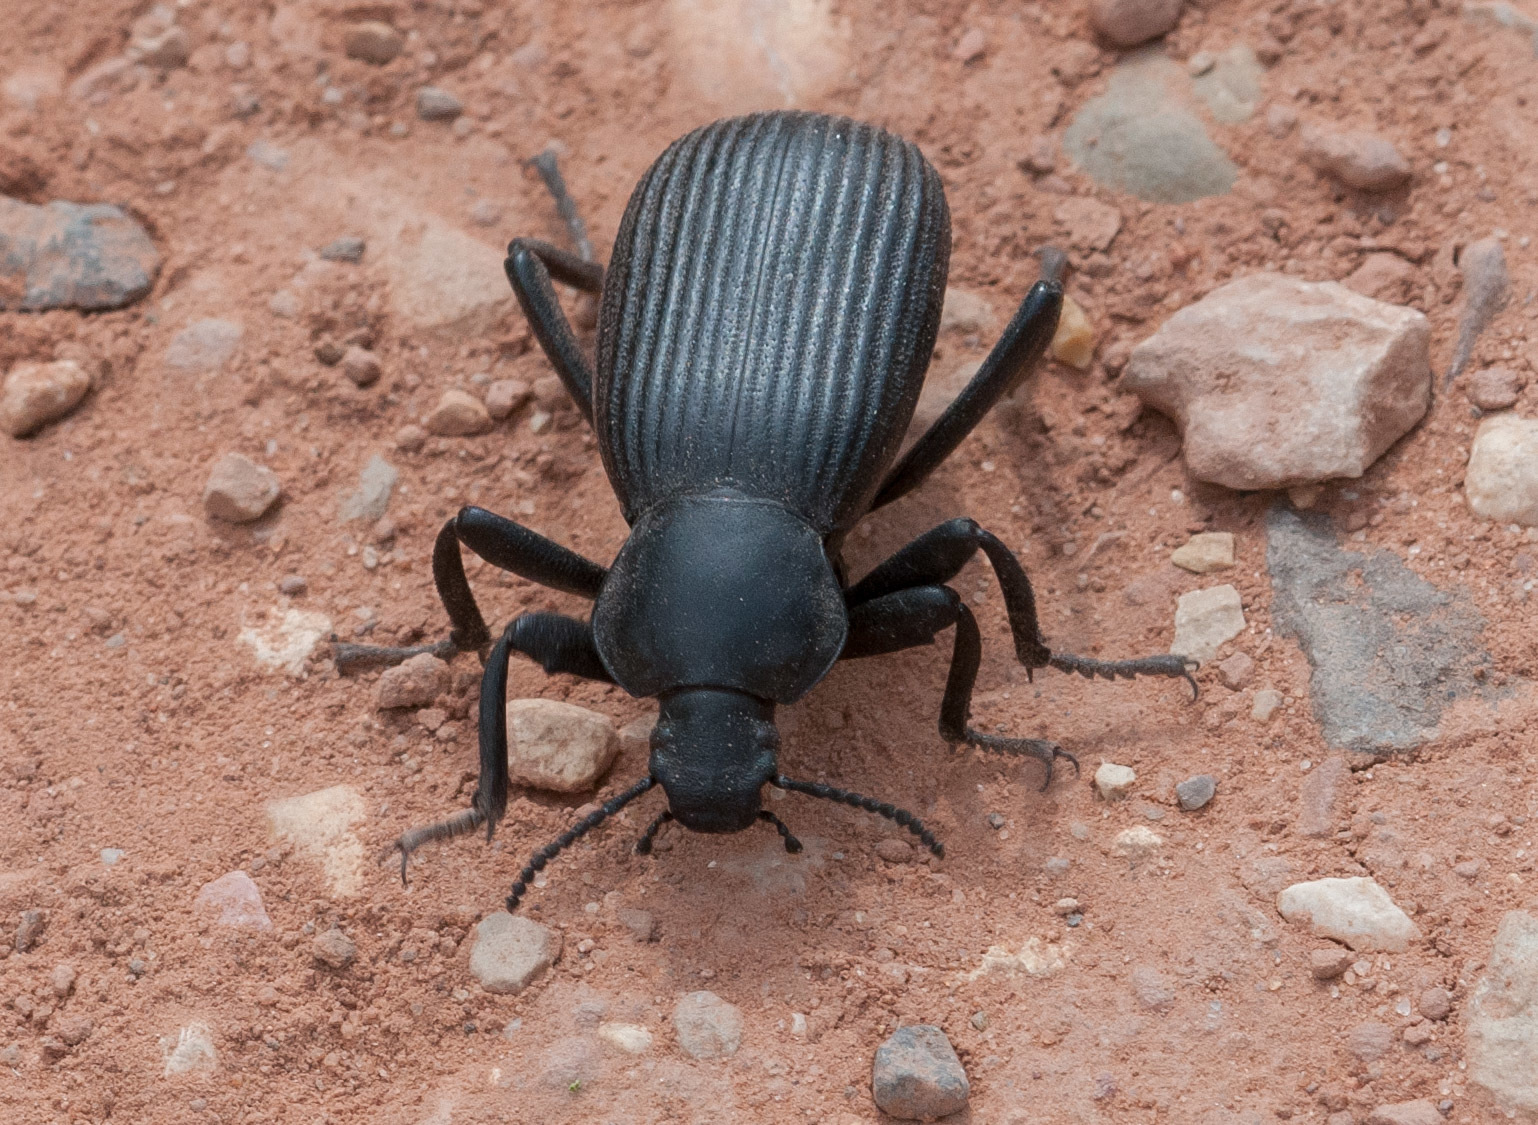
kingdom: Animalia
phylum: Arthropoda
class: Insecta
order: Coleoptera
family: Tenebrionidae
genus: Eleodes
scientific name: Eleodes obscura
